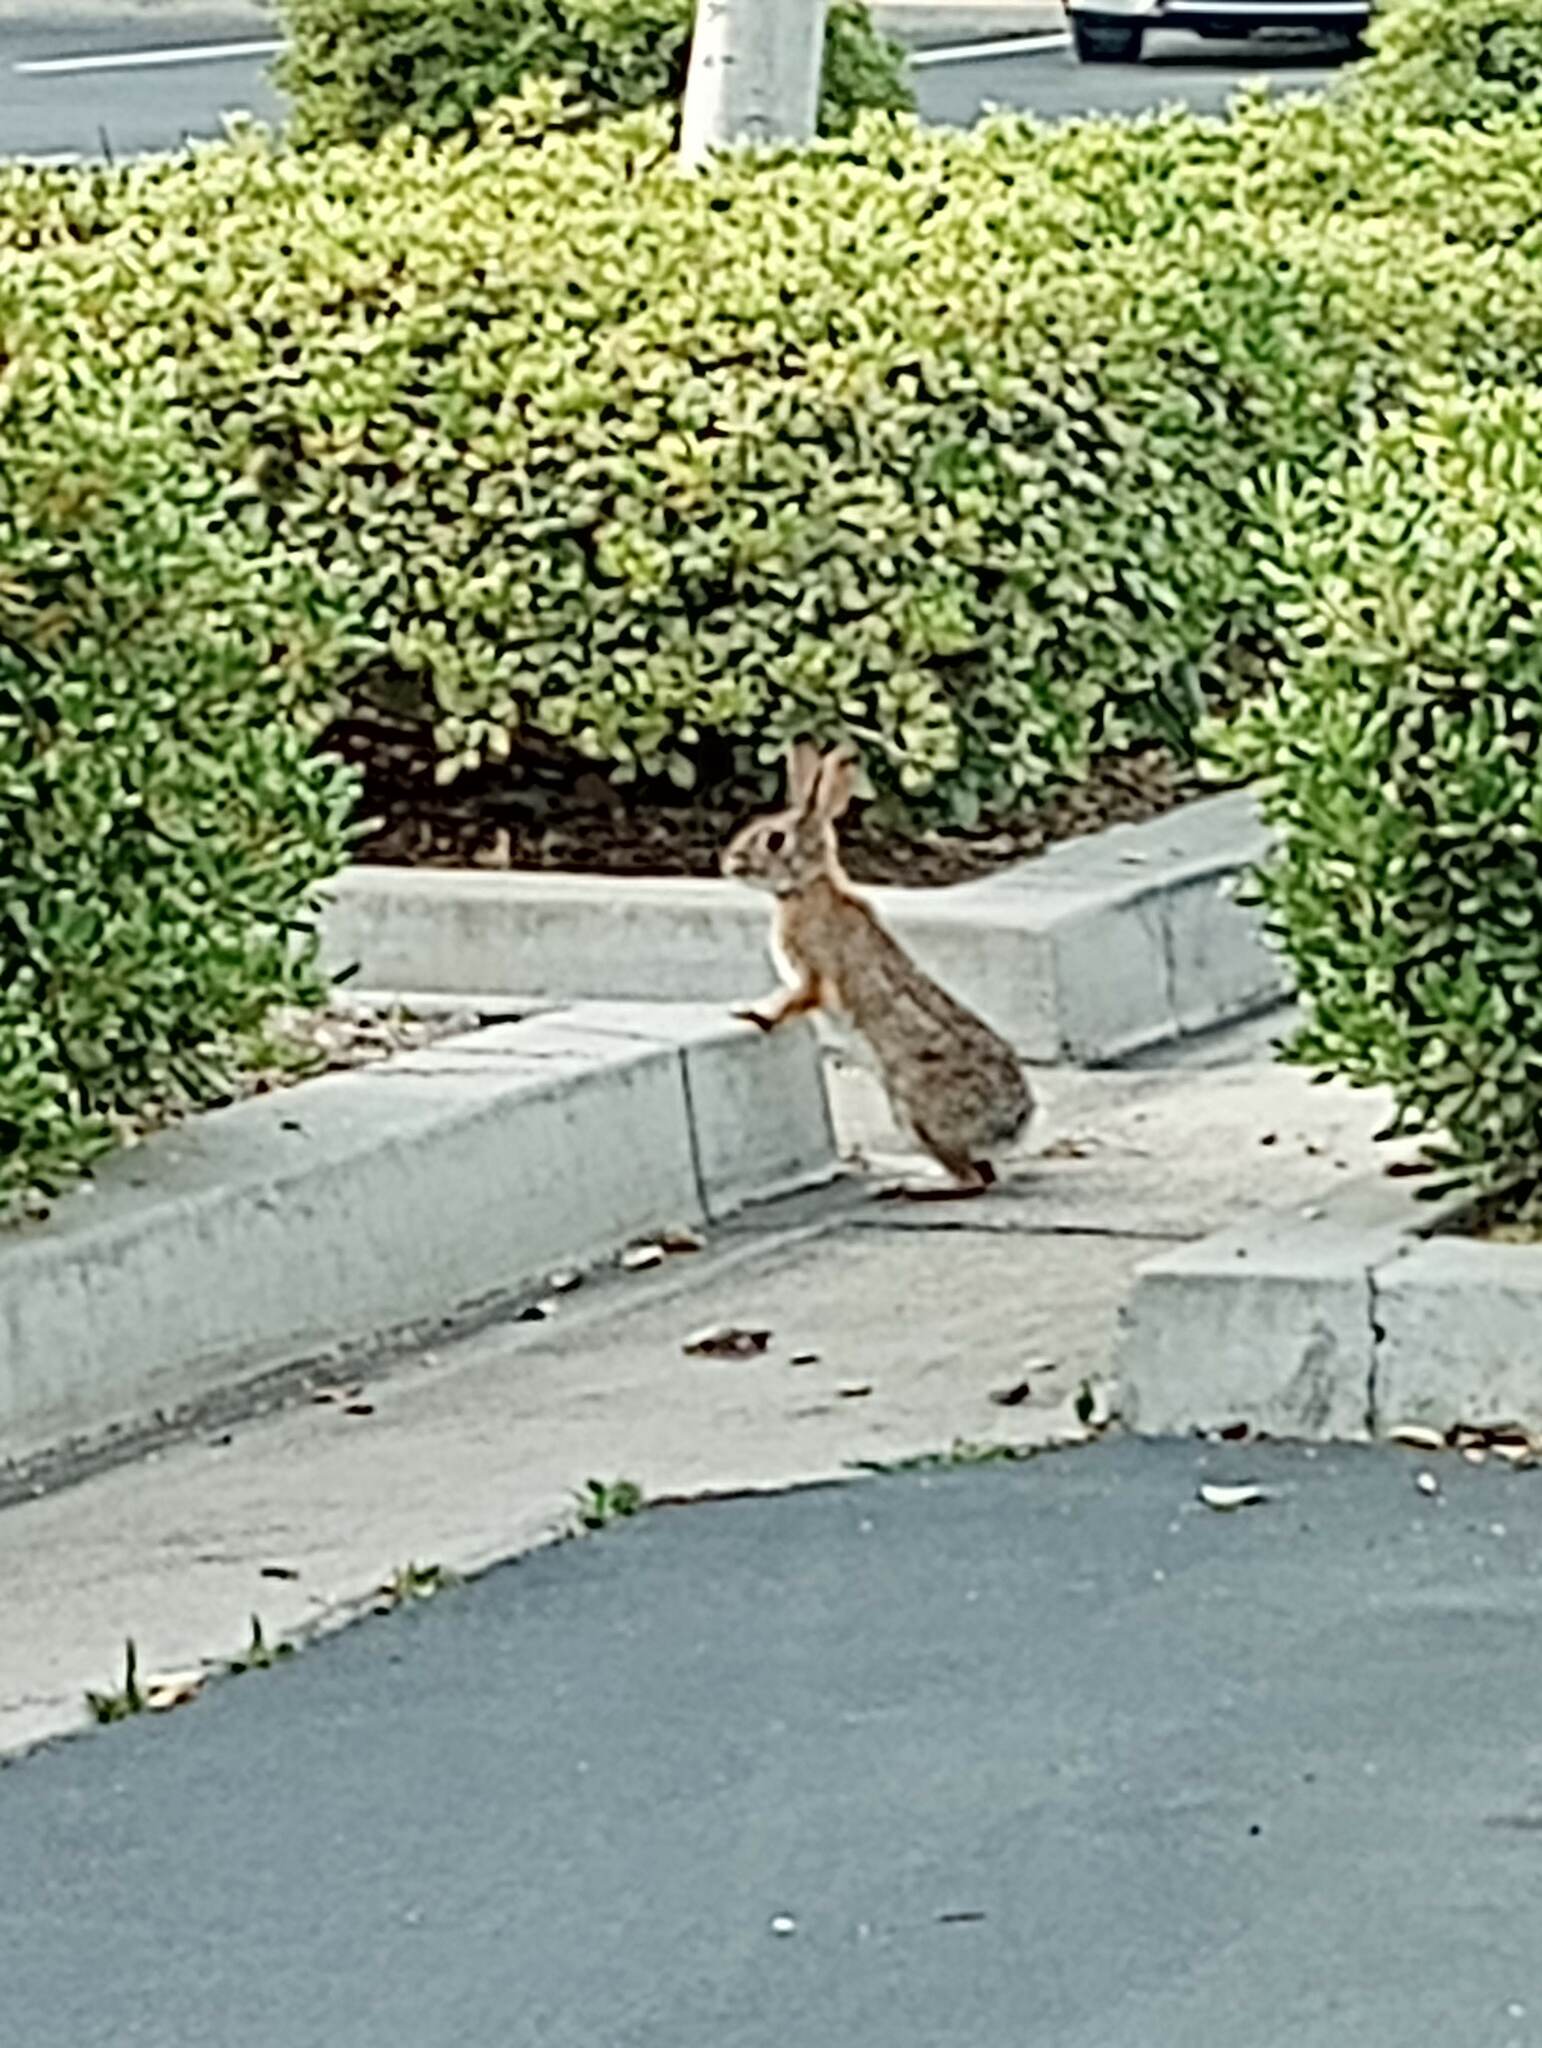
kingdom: Animalia
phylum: Chordata
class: Mammalia
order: Lagomorpha
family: Leporidae
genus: Sylvilagus
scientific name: Sylvilagus audubonii
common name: Desert cottontail
